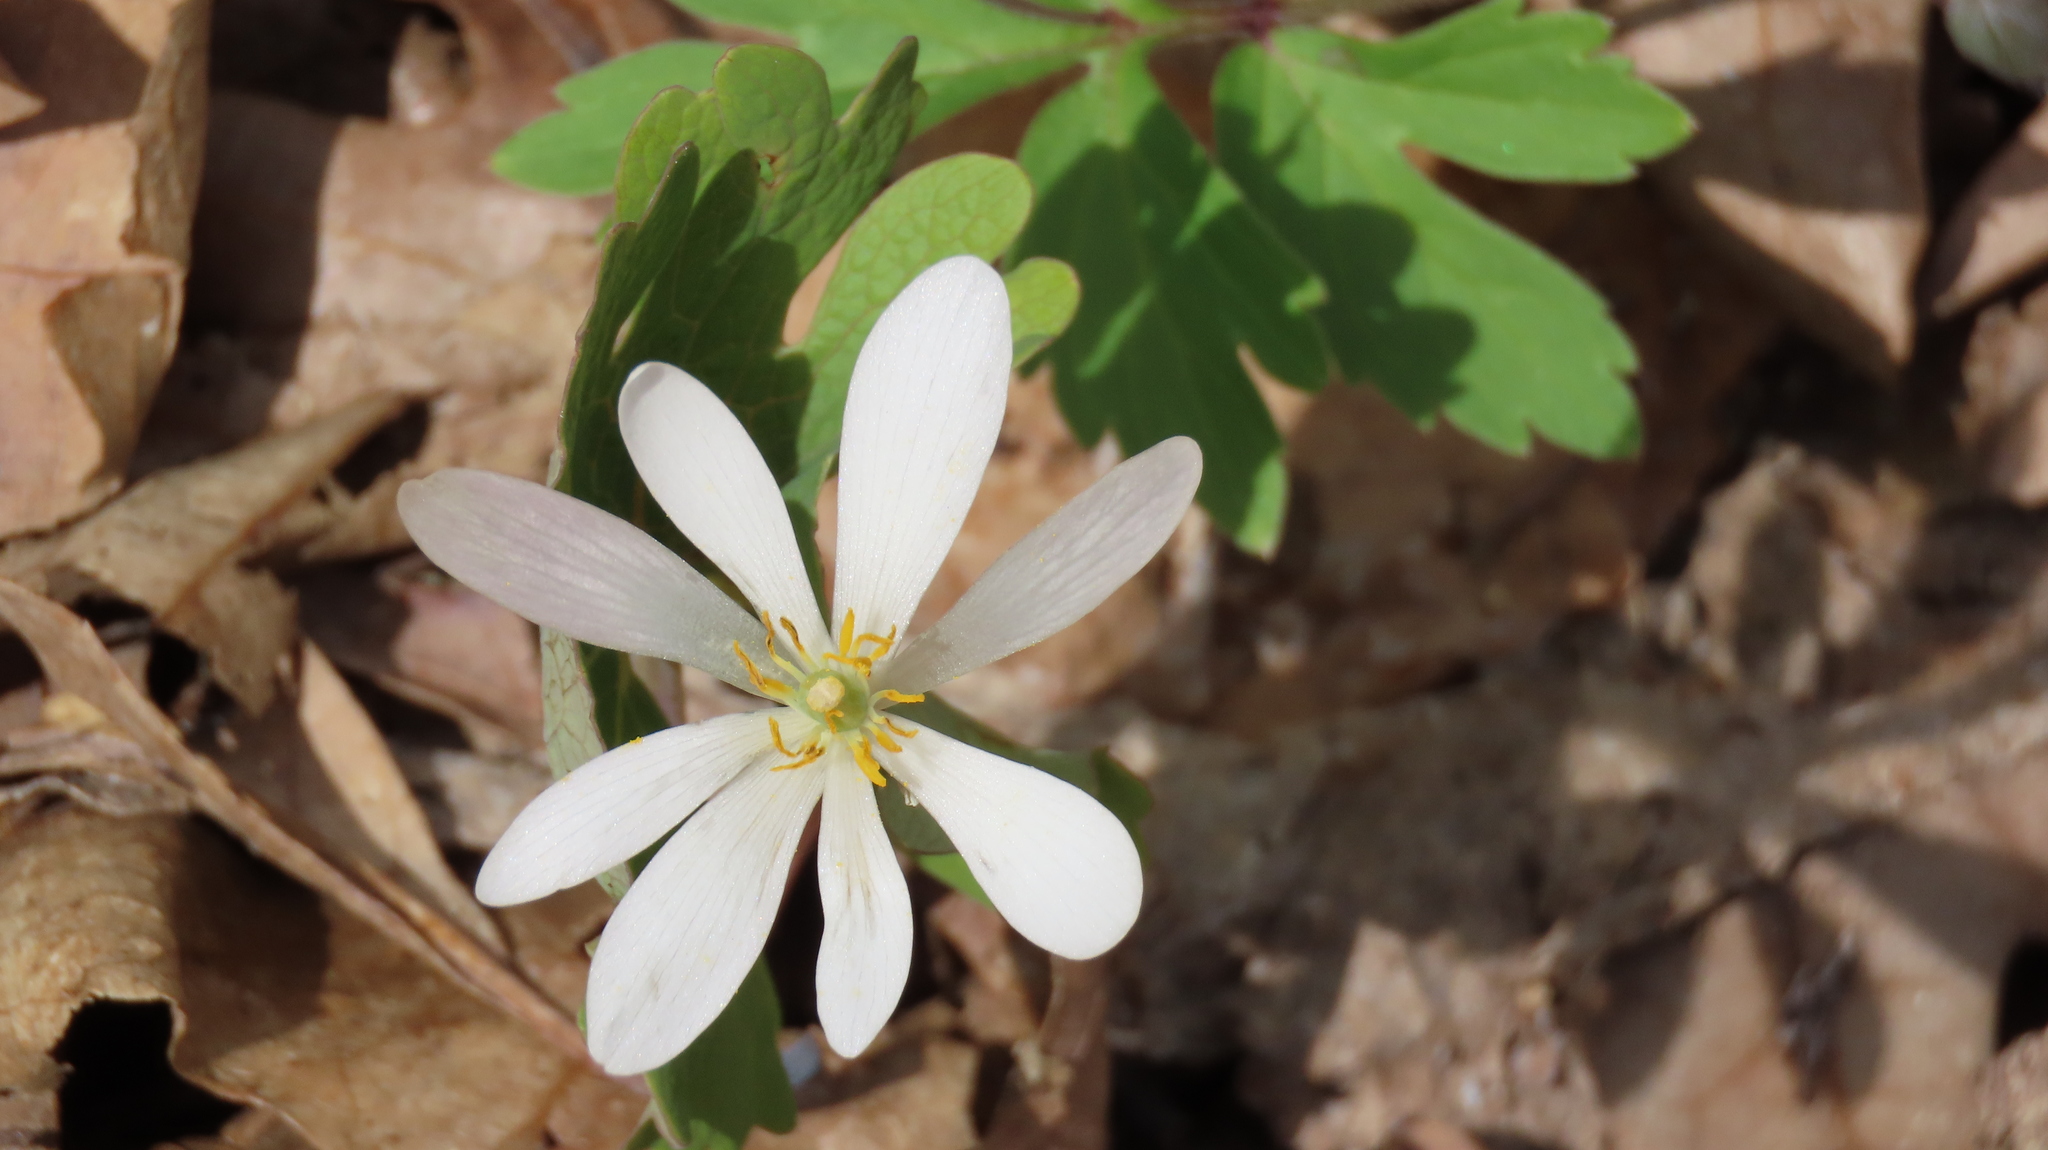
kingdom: Plantae
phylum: Tracheophyta
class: Magnoliopsida
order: Ranunculales
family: Papaveraceae
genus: Sanguinaria
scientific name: Sanguinaria canadensis
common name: Bloodroot
